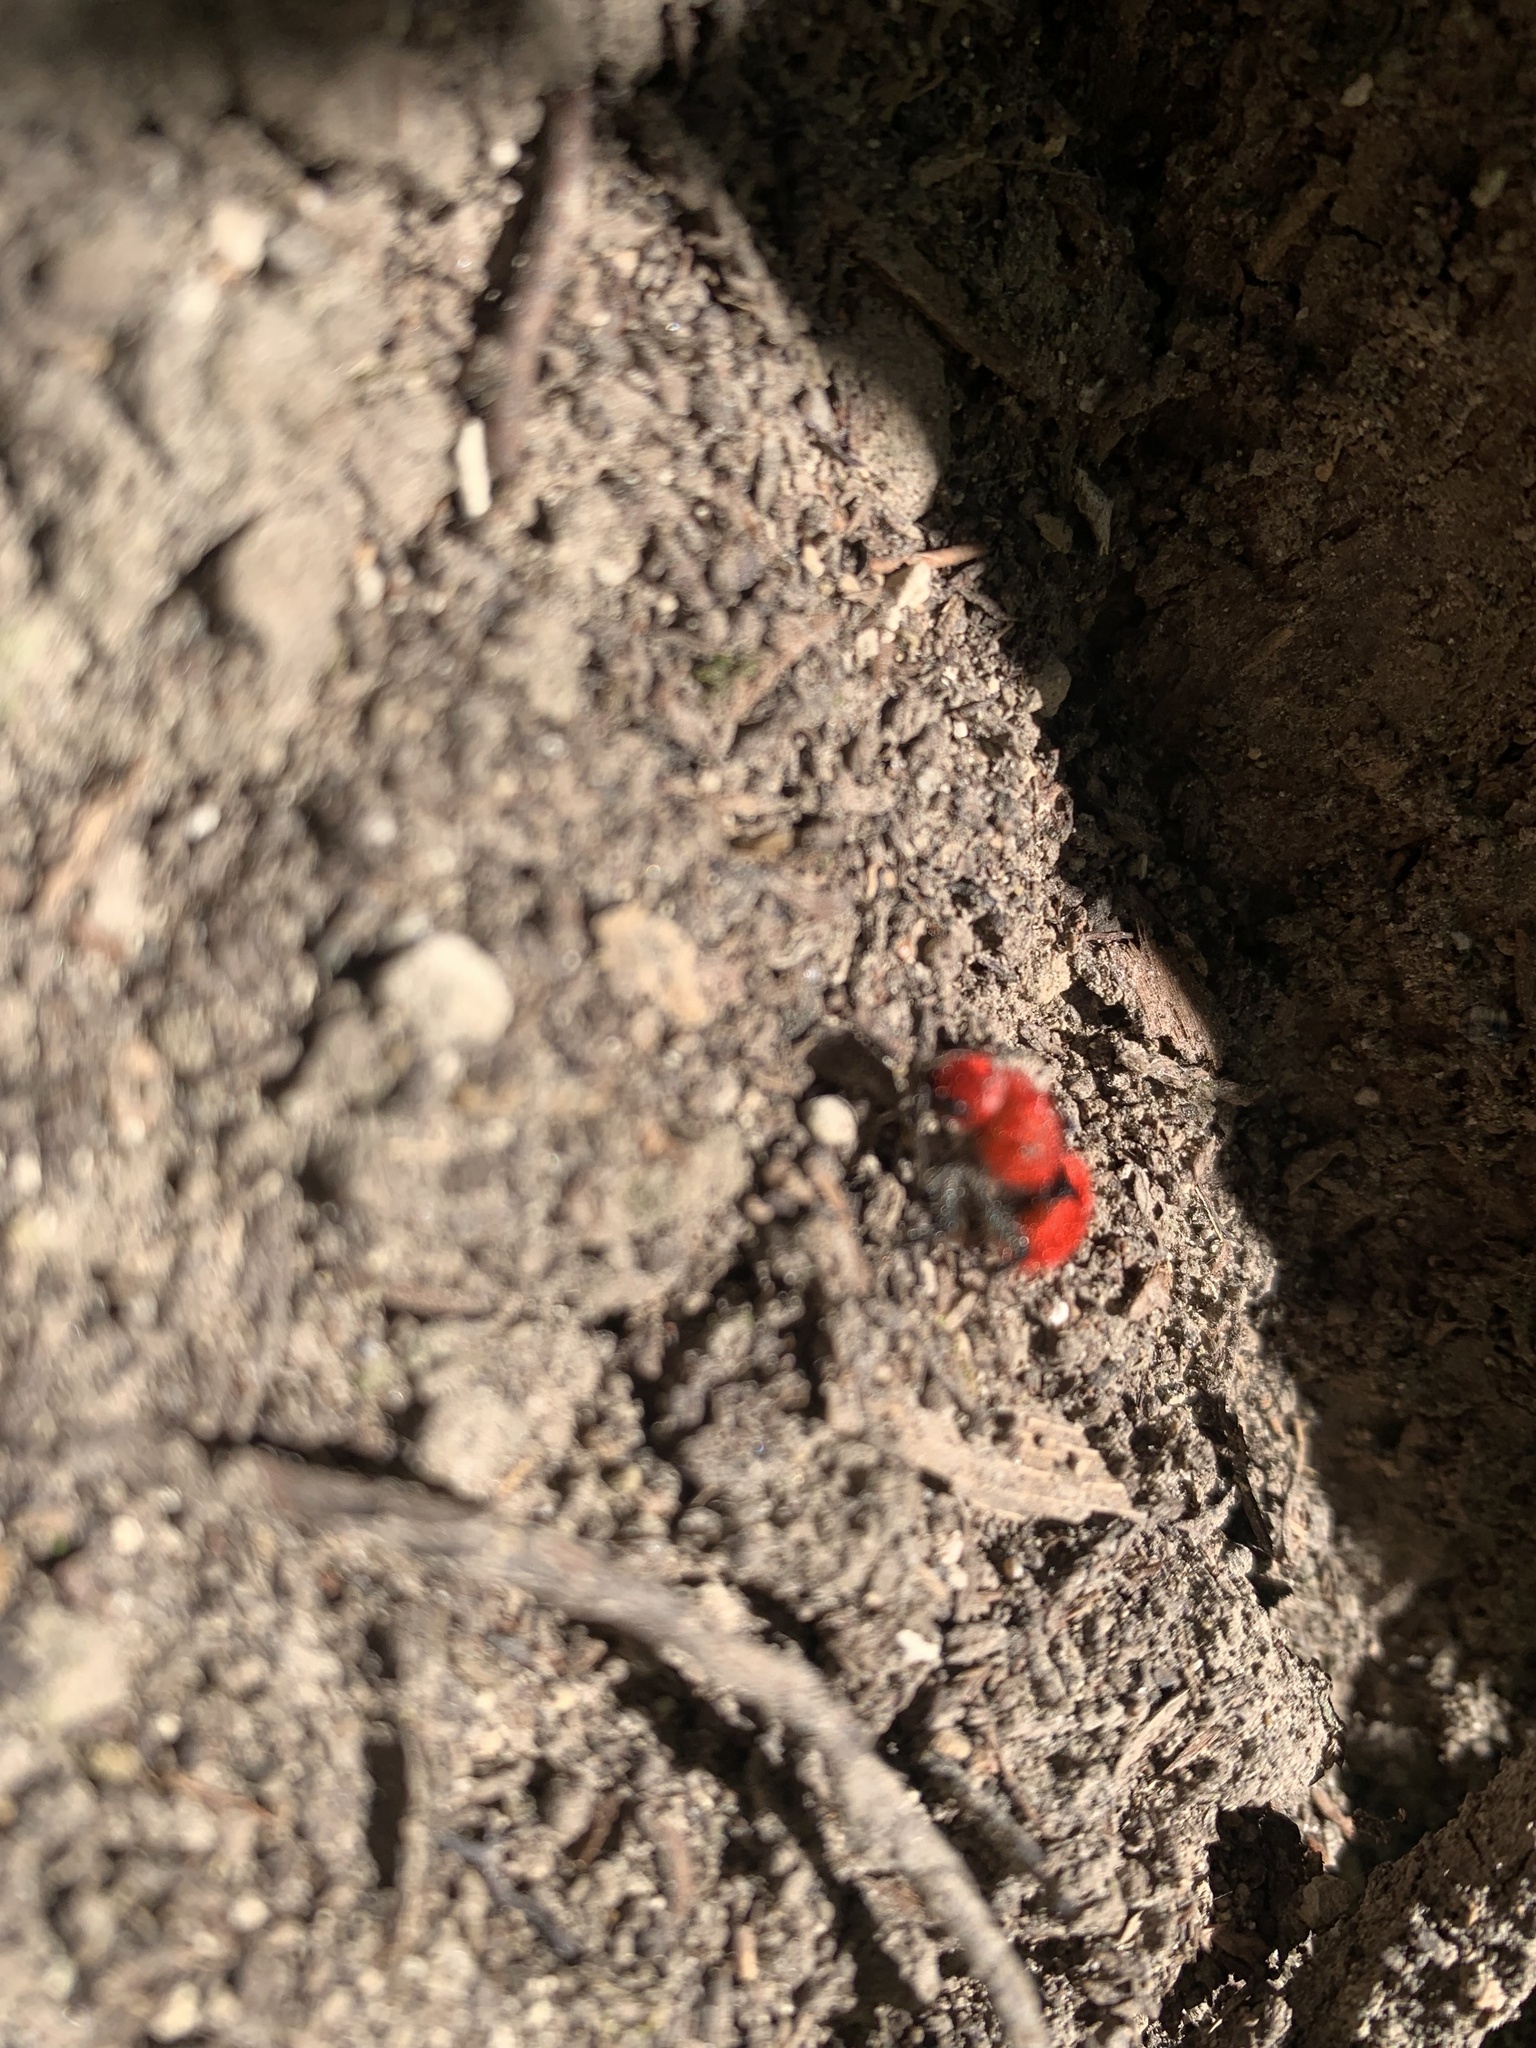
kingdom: Animalia
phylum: Arthropoda
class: Insecta
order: Hymenoptera
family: Mutillidae
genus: Dasymutilla
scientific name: Dasymutilla
